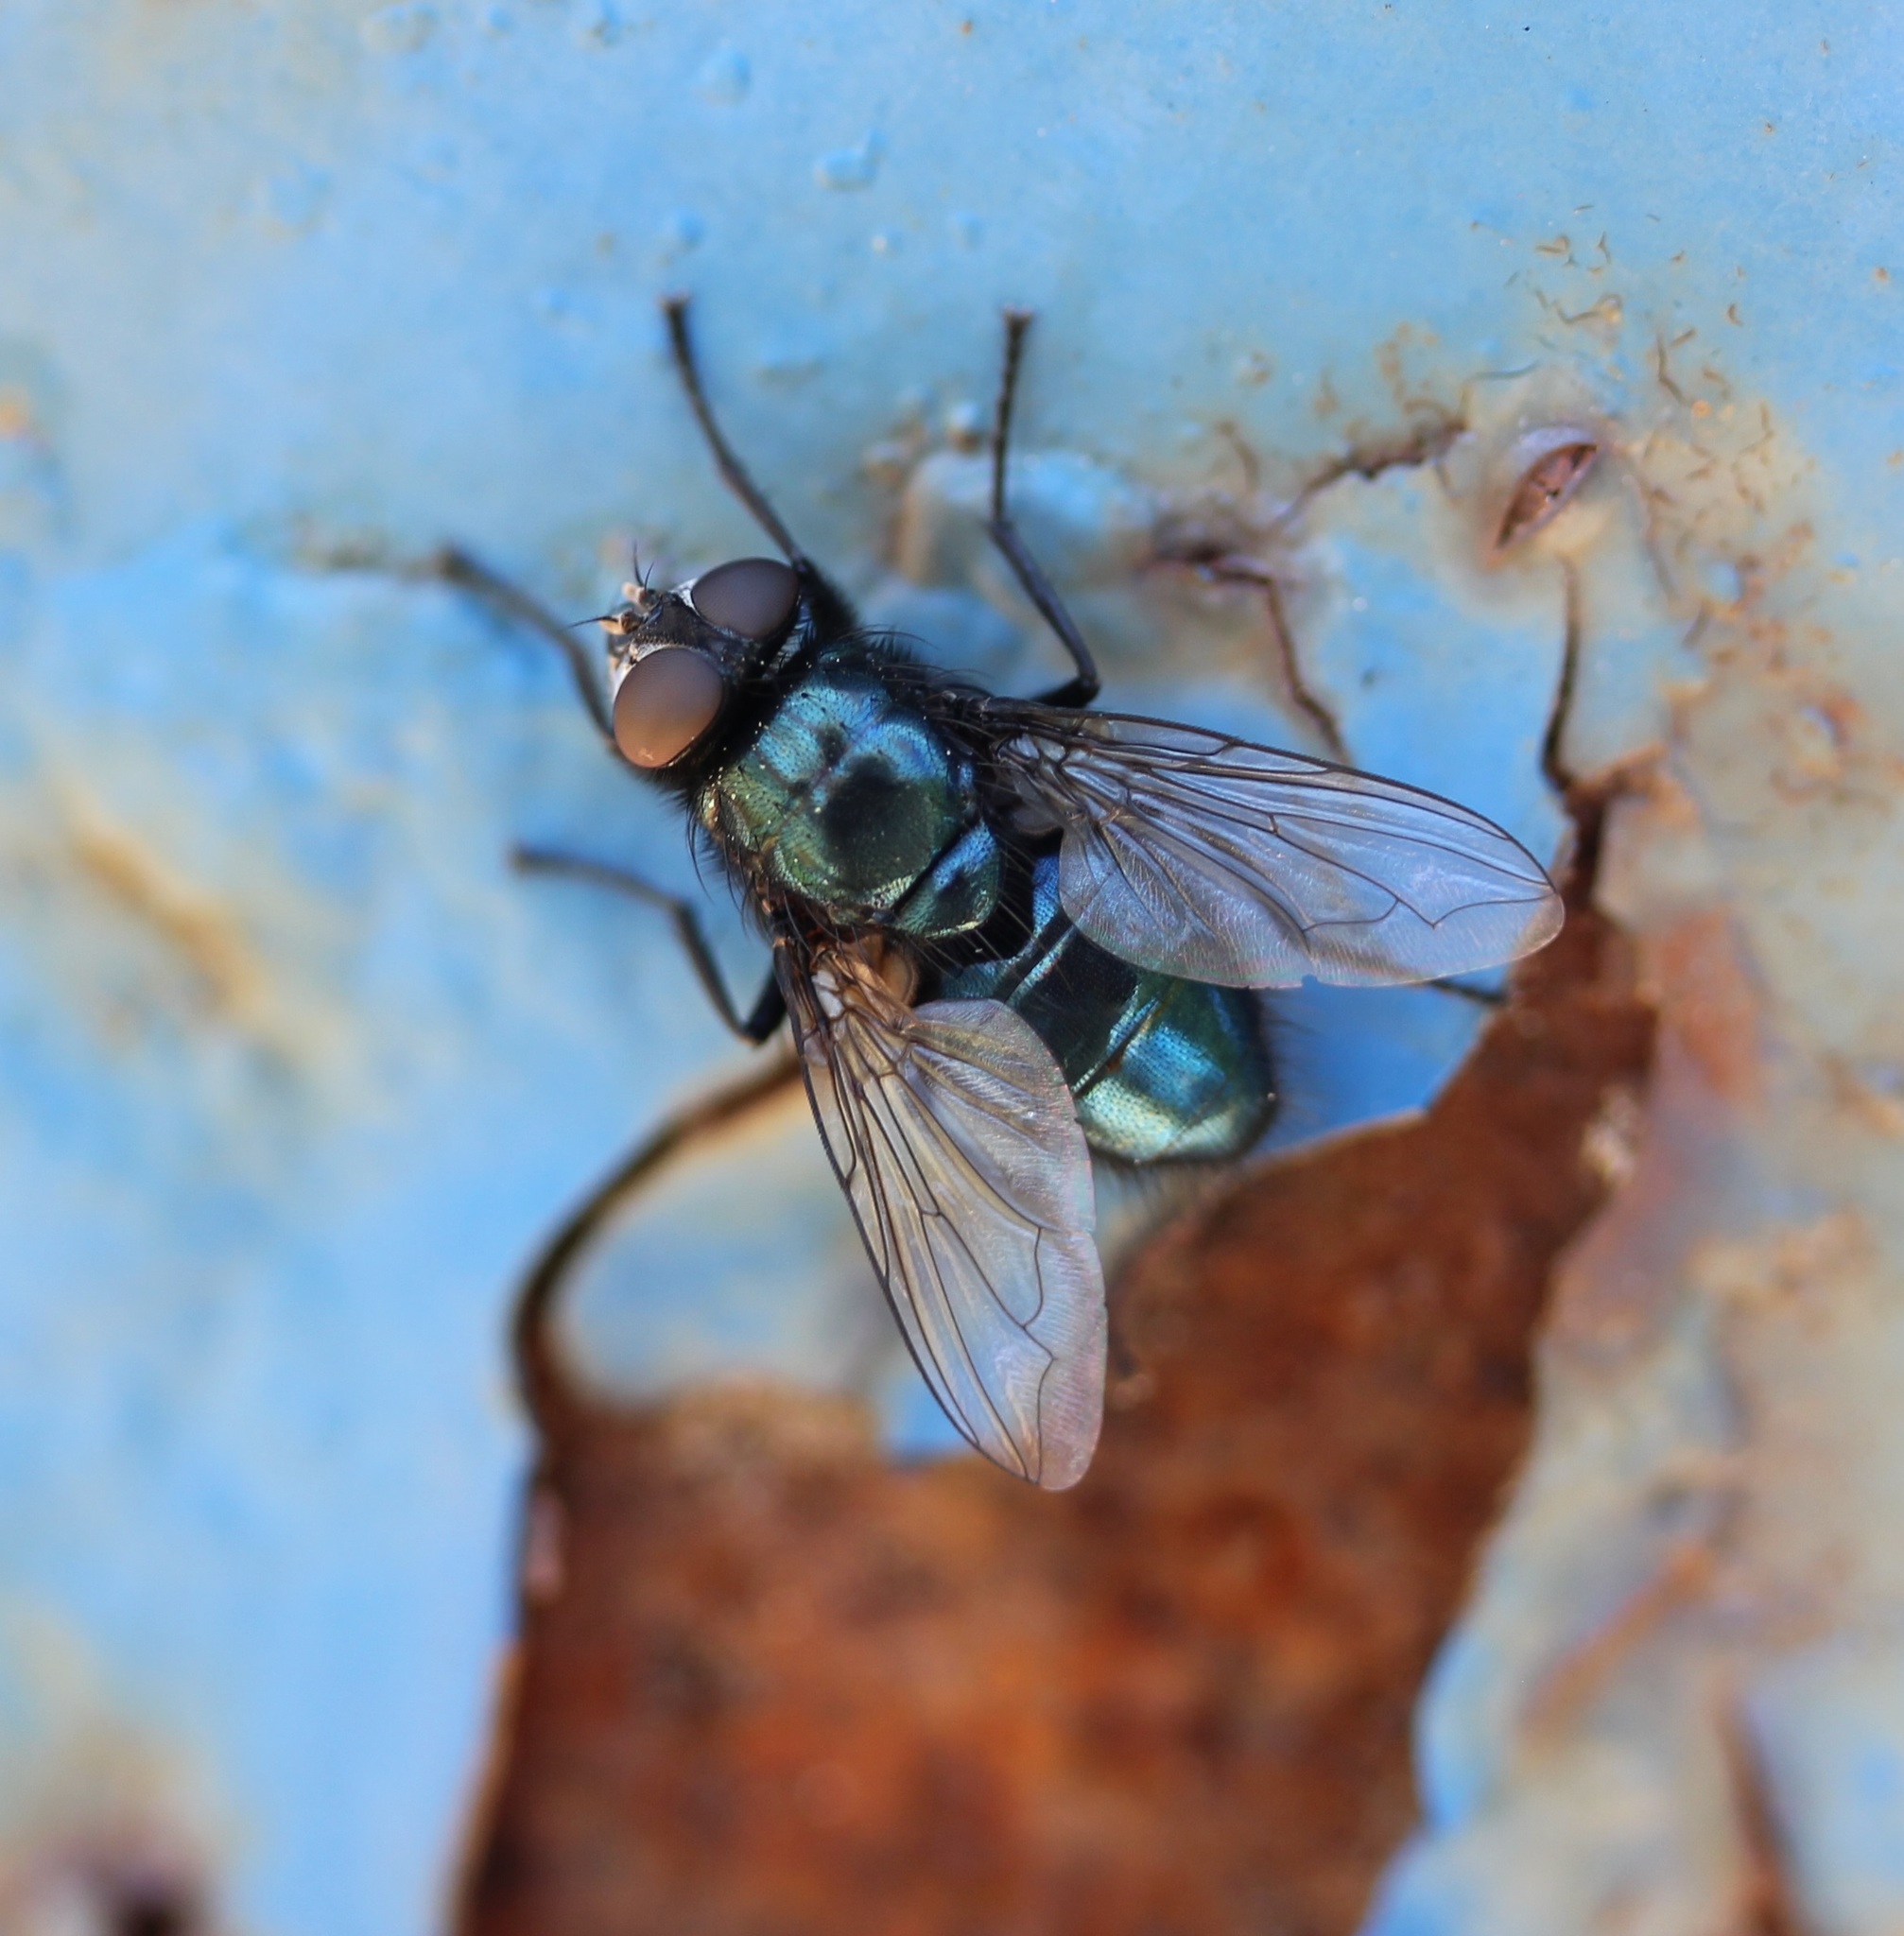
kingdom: Animalia
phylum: Arthropoda
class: Insecta
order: Diptera
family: Calliphoridae
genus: Protophormia
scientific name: Protophormia terraenovae
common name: Blackbottle
